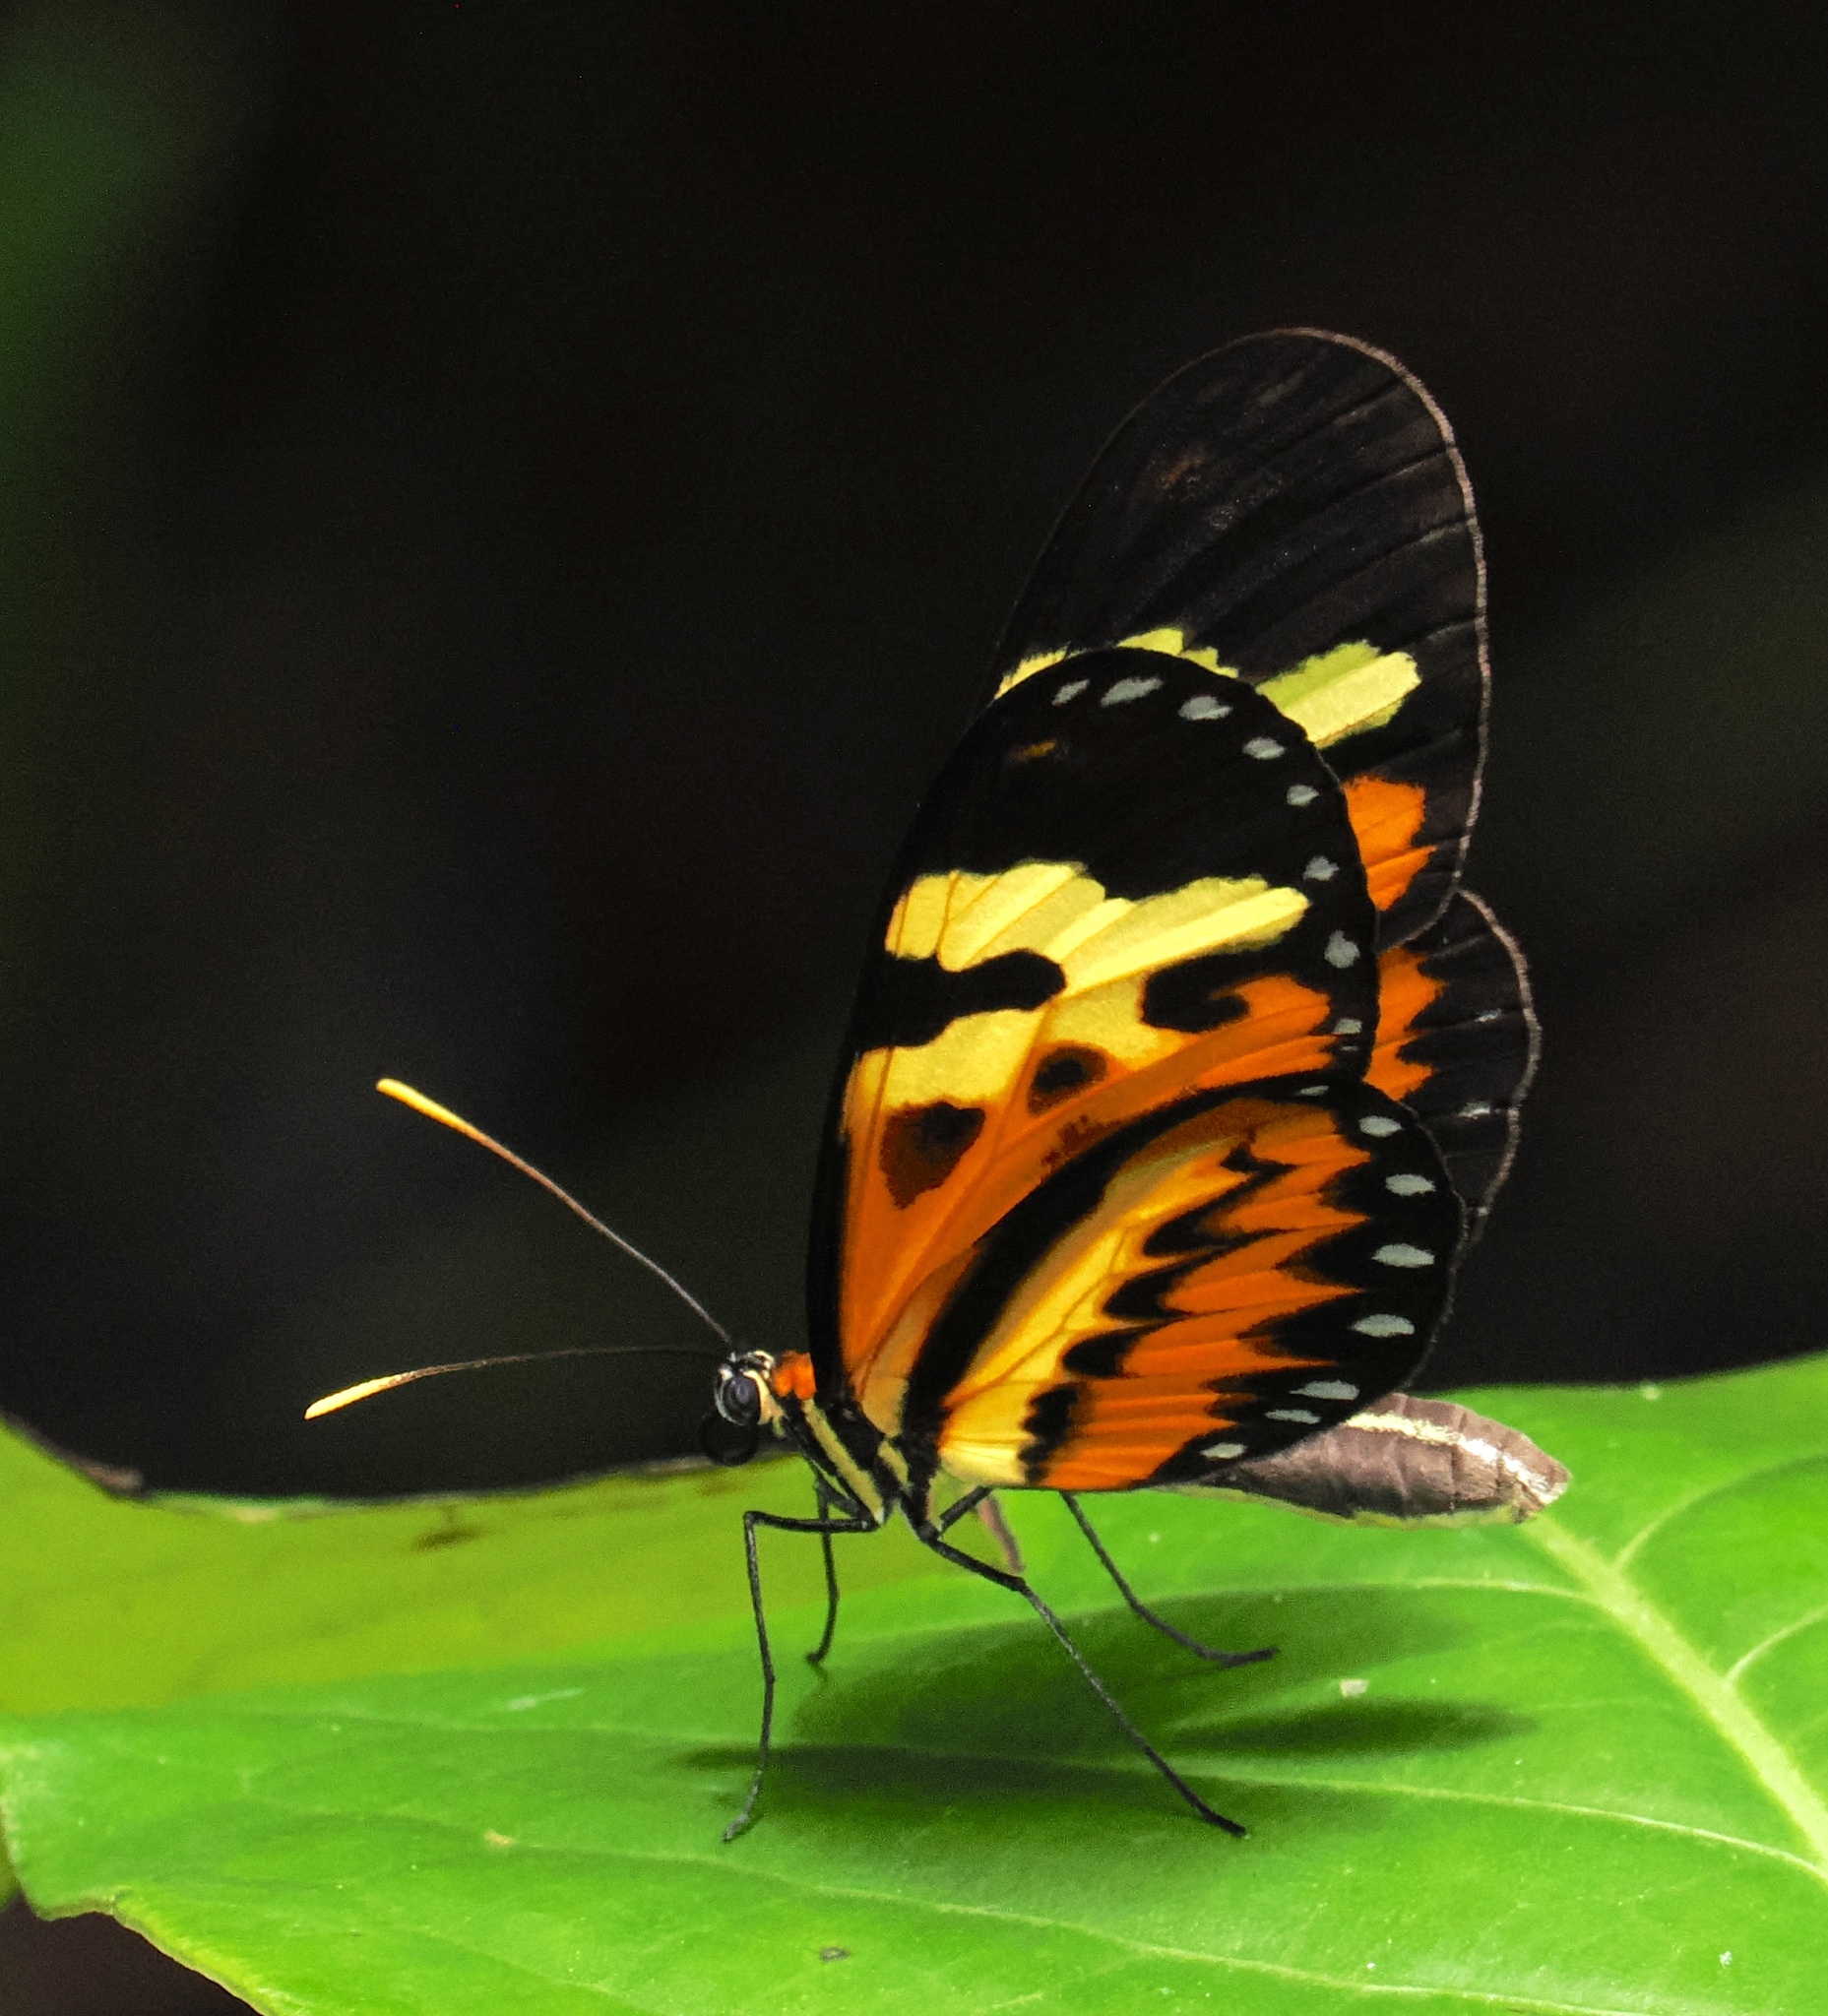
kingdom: Animalia
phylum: Arthropoda
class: Insecta
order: Lepidoptera
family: Nymphalidae
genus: Mechanitis
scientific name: Mechanitis polymnia
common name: Disturbed tigerwing
